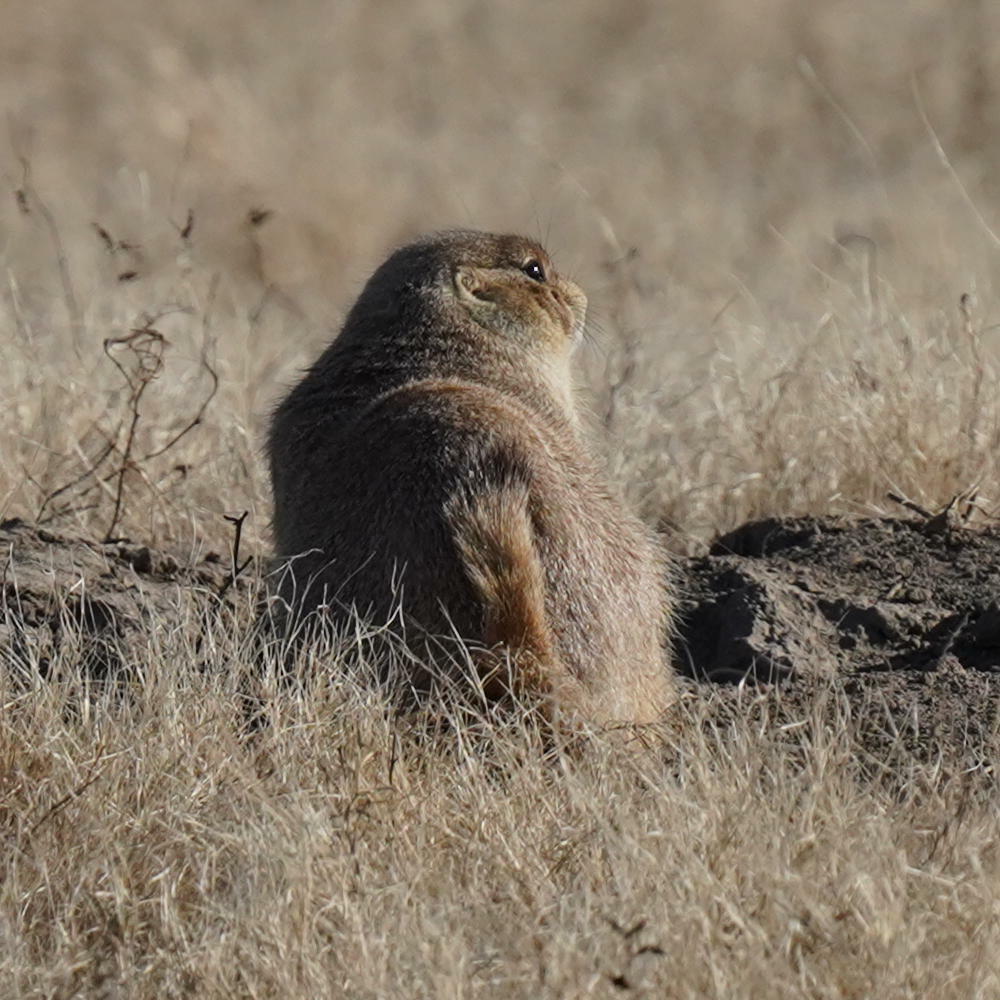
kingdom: Animalia
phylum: Chordata
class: Mammalia
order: Rodentia
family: Sciuridae
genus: Cynomys
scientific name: Cynomys ludovicianus
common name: Black-tailed prairie dog
